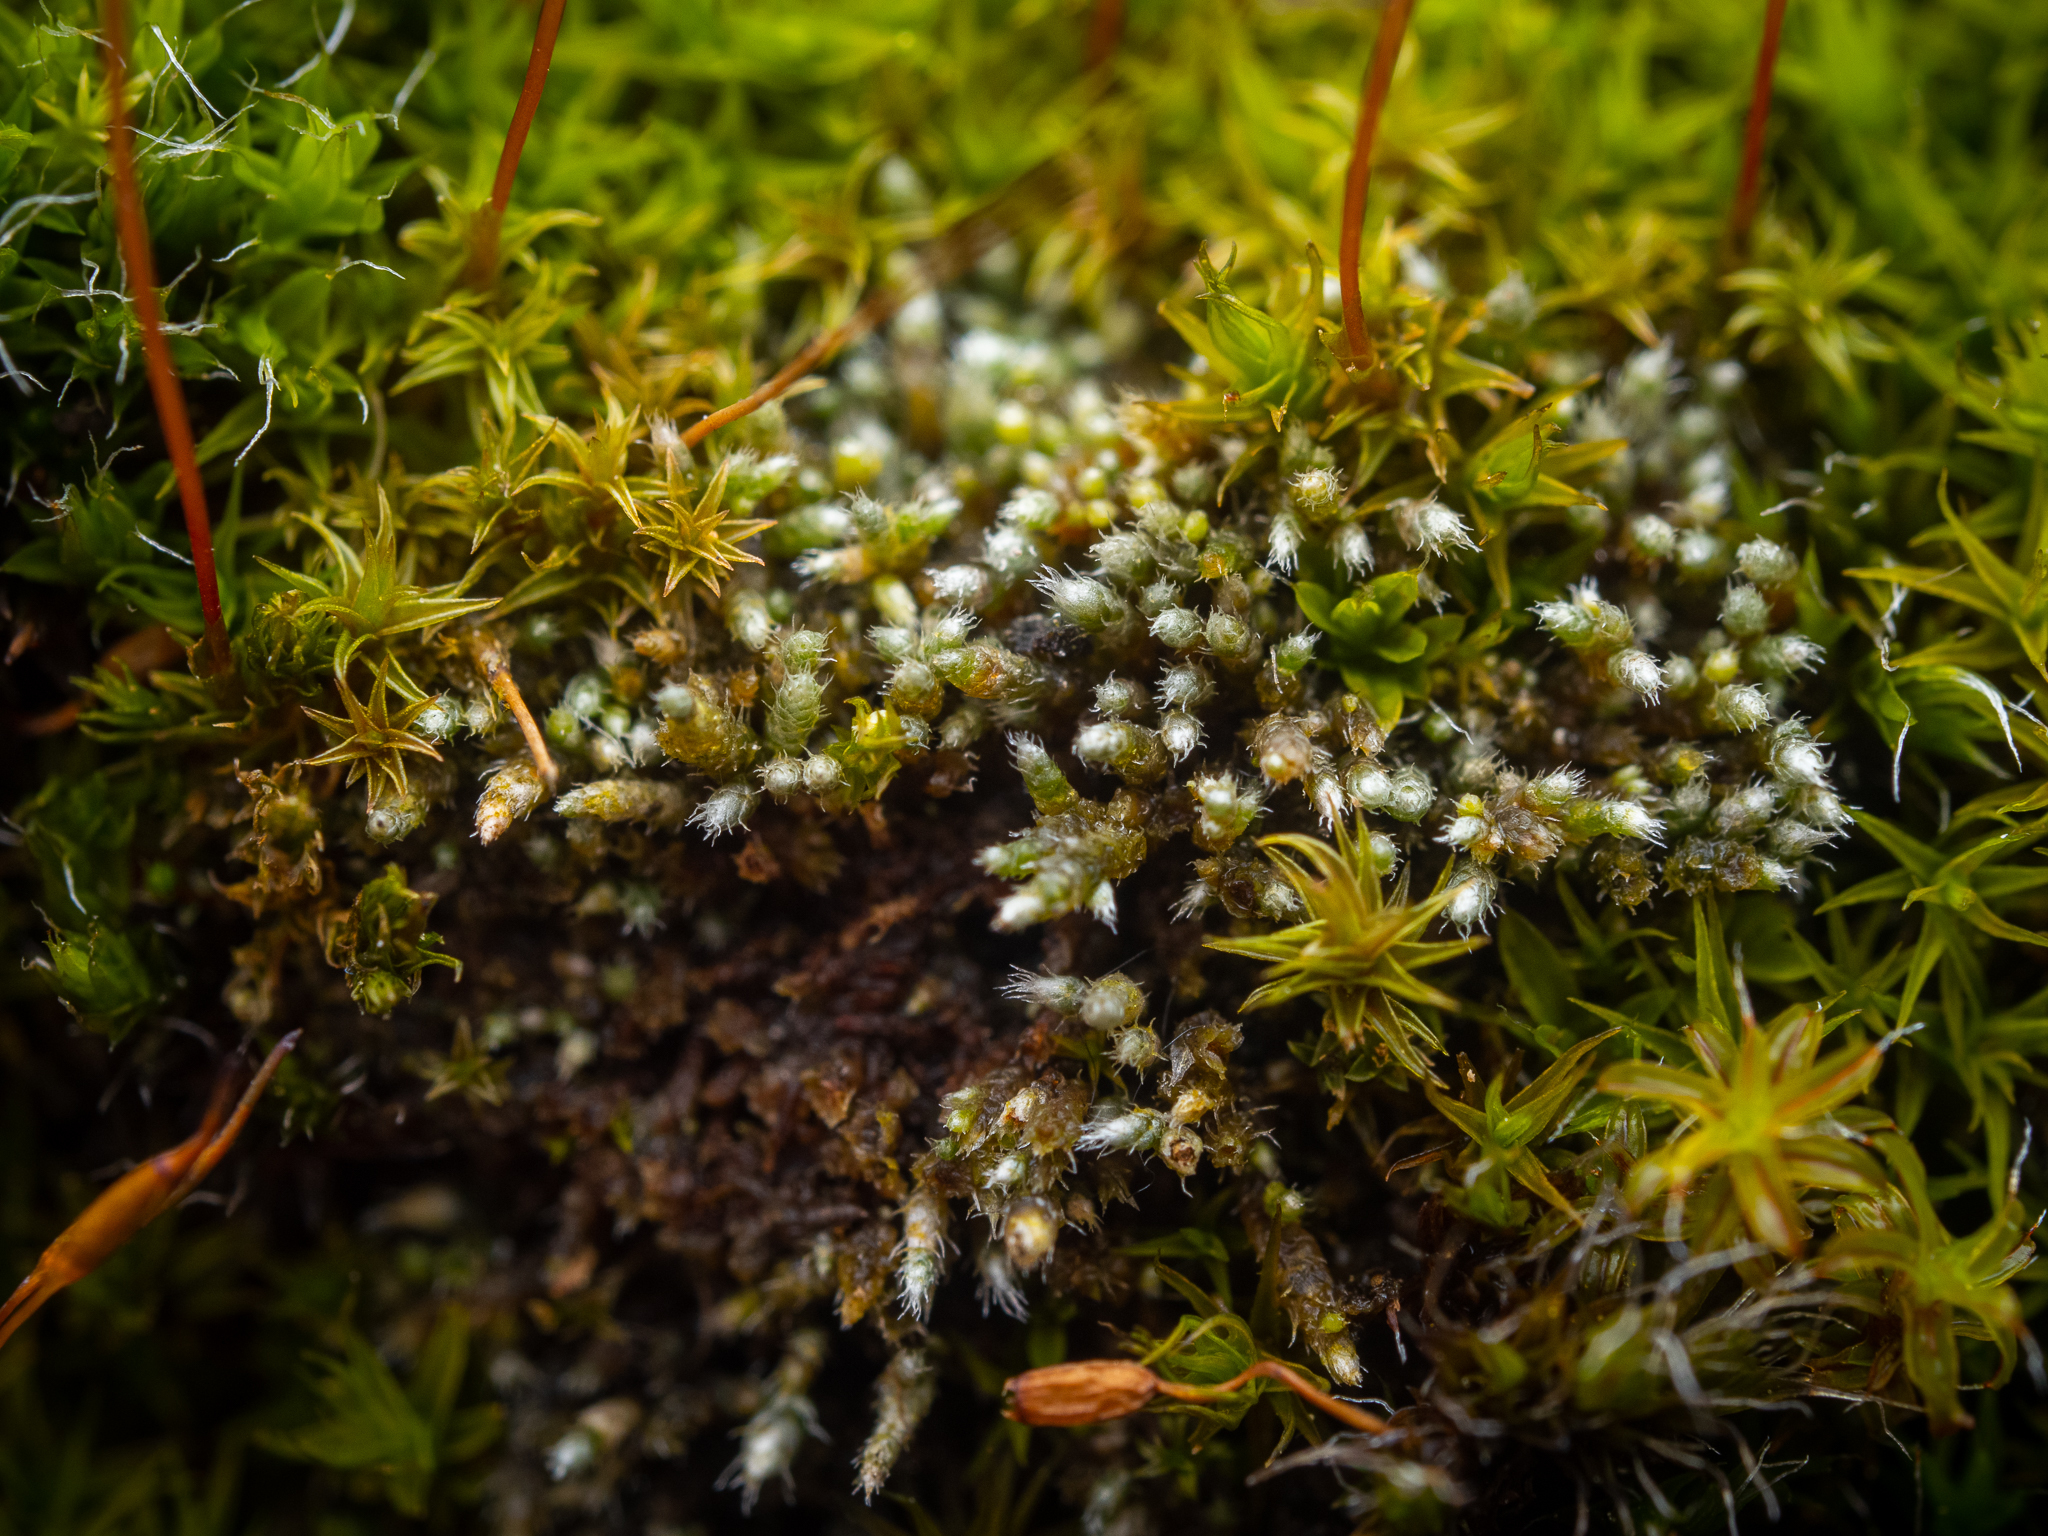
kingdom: Plantae
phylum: Bryophyta
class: Bryopsida
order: Bryales
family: Bryaceae
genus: Bryum
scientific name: Bryum argenteum
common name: Silver-moss
